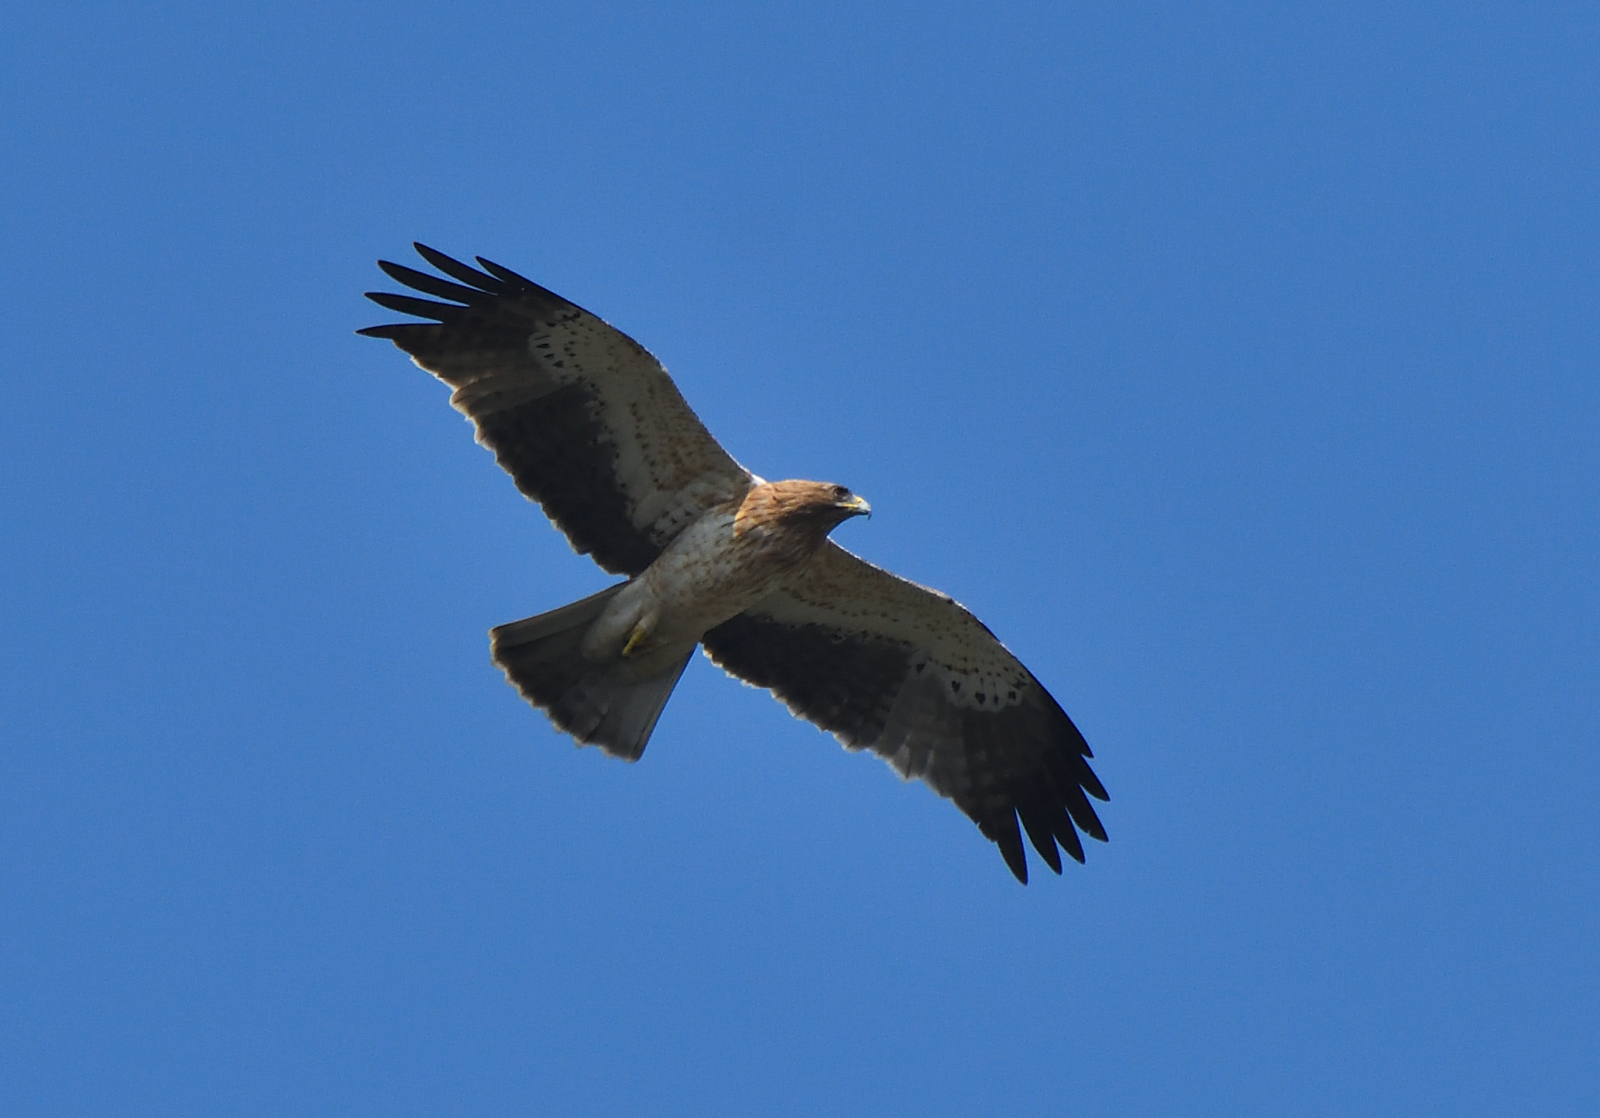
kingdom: Animalia
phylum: Chordata
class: Aves
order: Accipitriformes
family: Accipitridae
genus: Hieraaetus
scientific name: Hieraaetus pennatus
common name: Booted eagle
